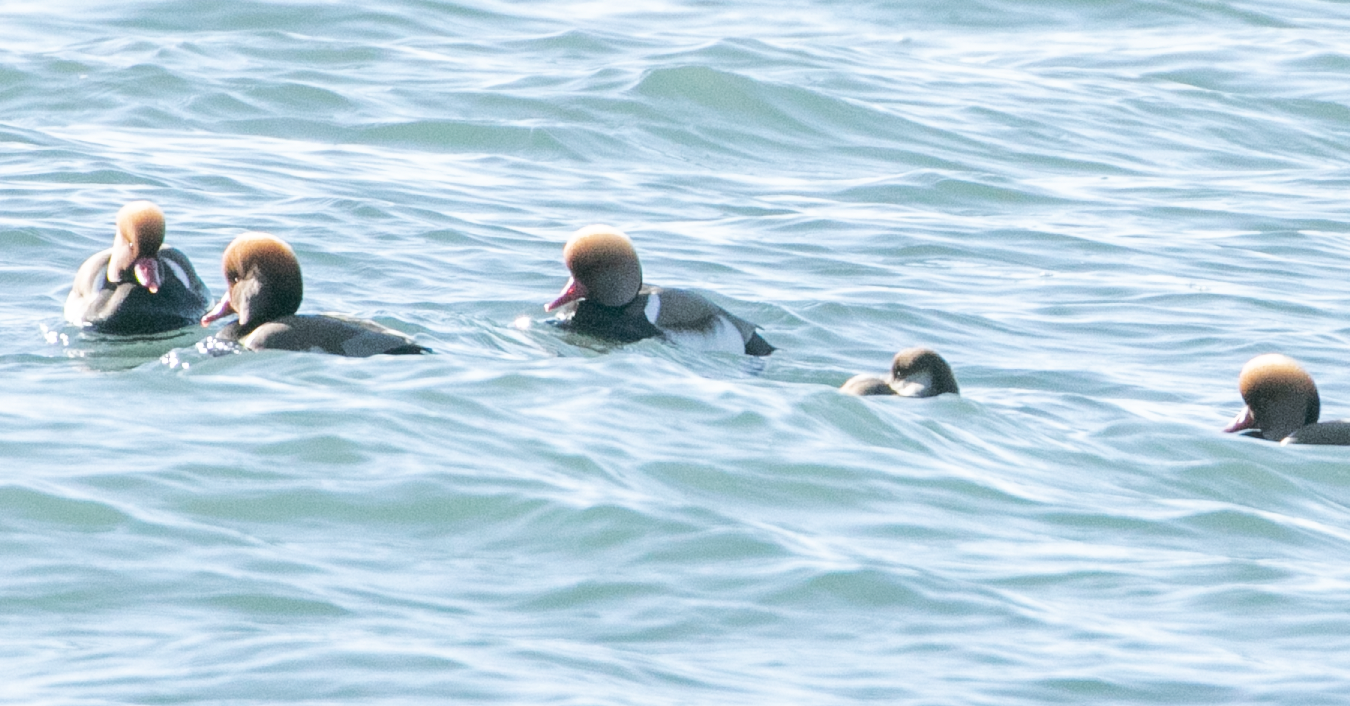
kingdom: Animalia
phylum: Chordata
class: Aves
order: Anseriformes
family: Anatidae
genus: Netta
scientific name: Netta rufina
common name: Red-crested pochard
